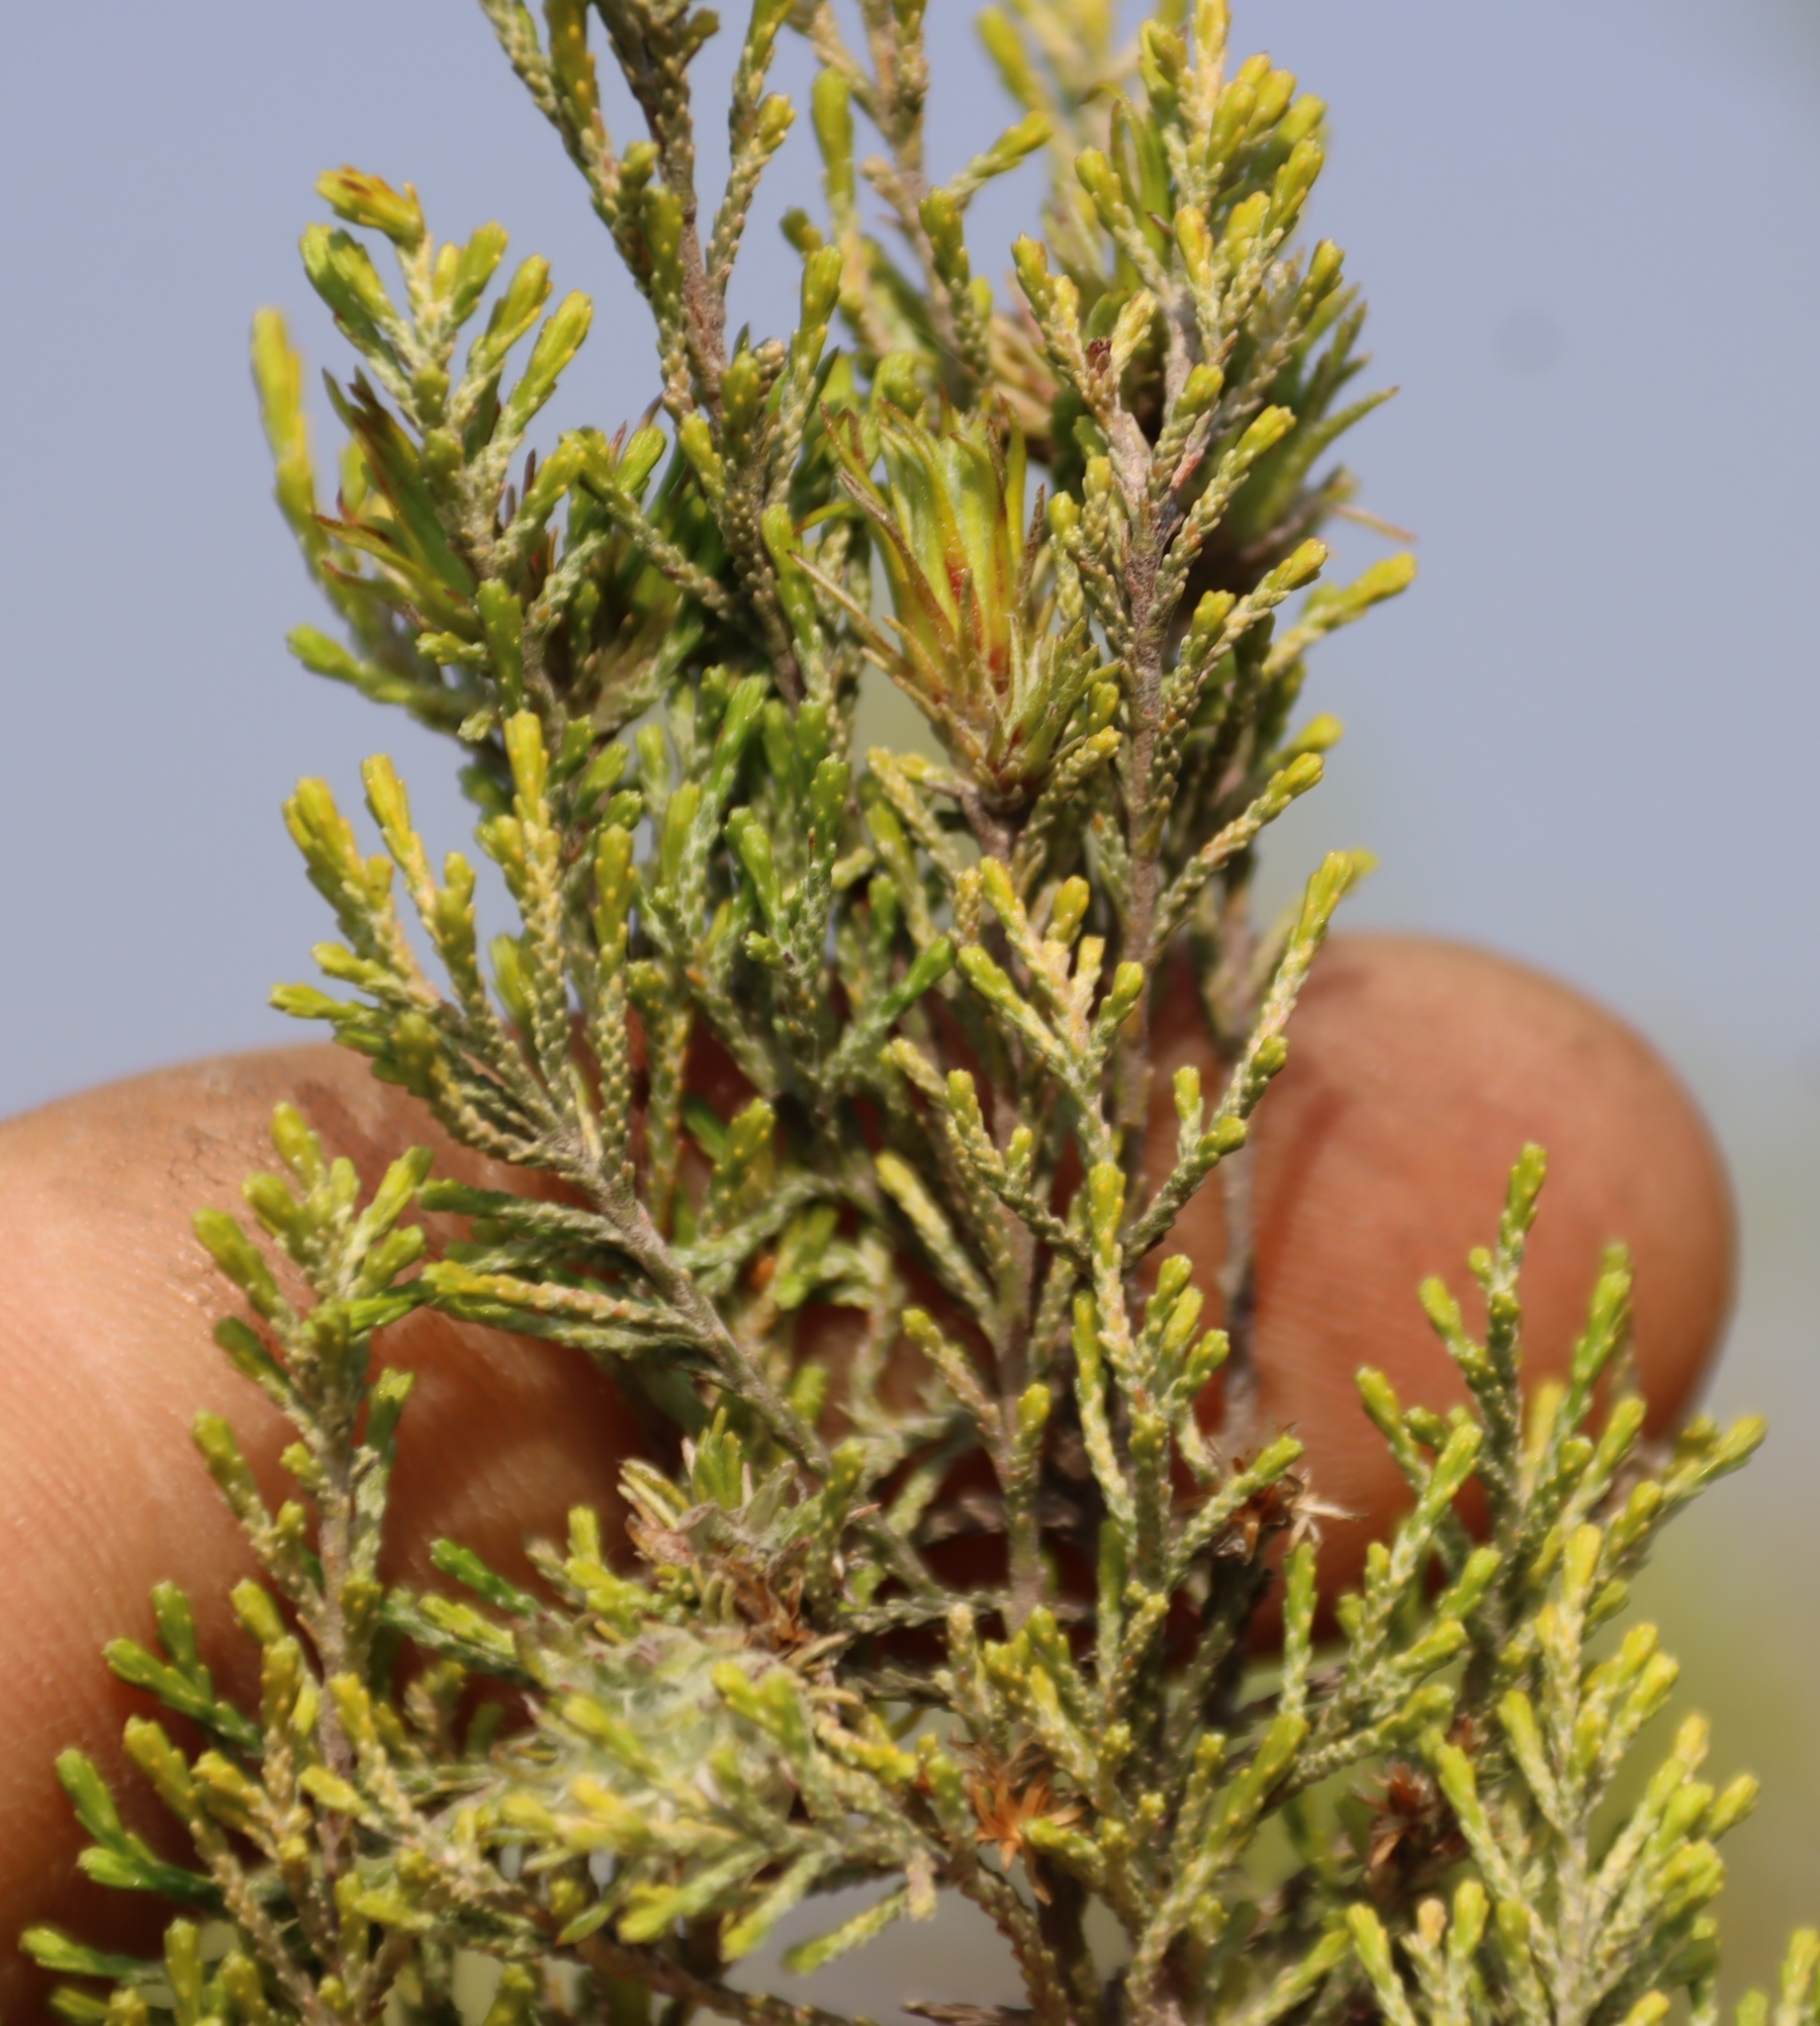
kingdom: Plantae
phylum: Tracheophyta
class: Magnoliopsida
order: Asterales
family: Asteraceae
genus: Dicerothamnus
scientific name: Dicerothamnus rhinocerotis
